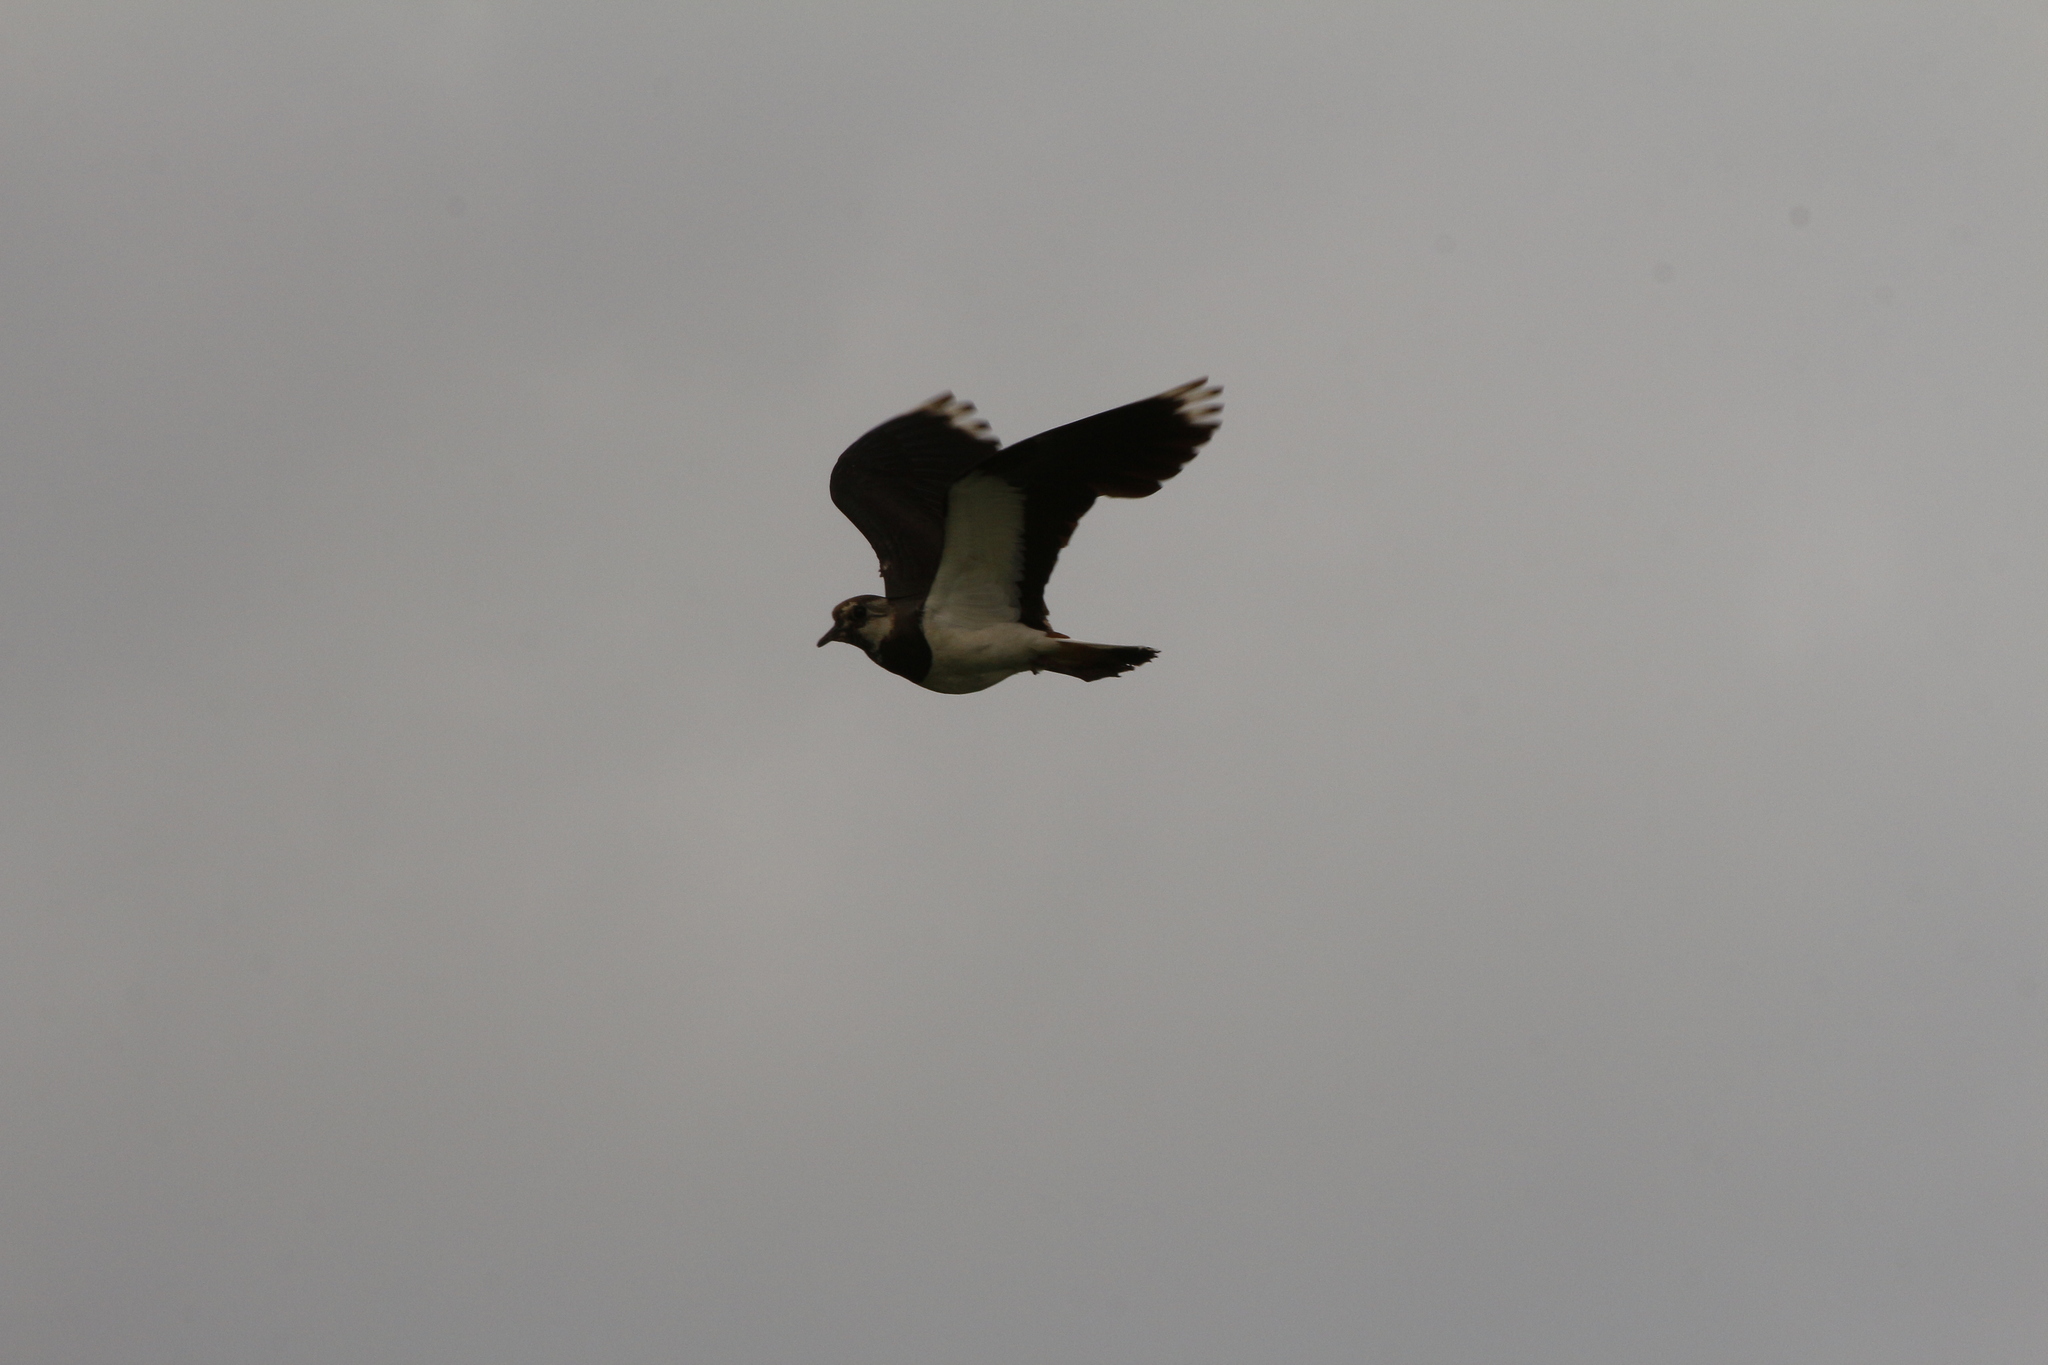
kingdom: Animalia
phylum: Chordata
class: Aves
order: Charadriiformes
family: Charadriidae
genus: Vanellus
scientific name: Vanellus vanellus
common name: Northern lapwing
